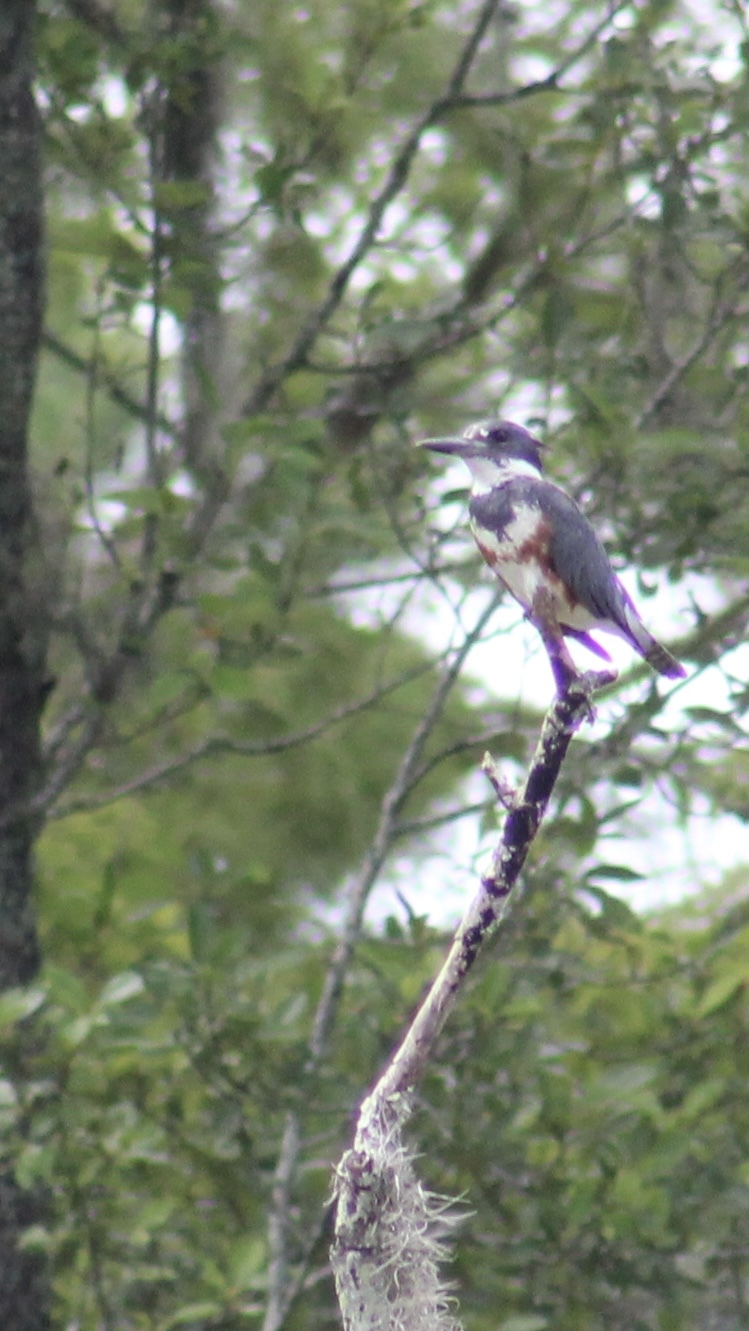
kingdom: Animalia
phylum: Chordata
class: Aves
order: Coraciiformes
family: Alcedinidae
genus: Megaceryle
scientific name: Megaceryle alcyon
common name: Belted kingfisher
